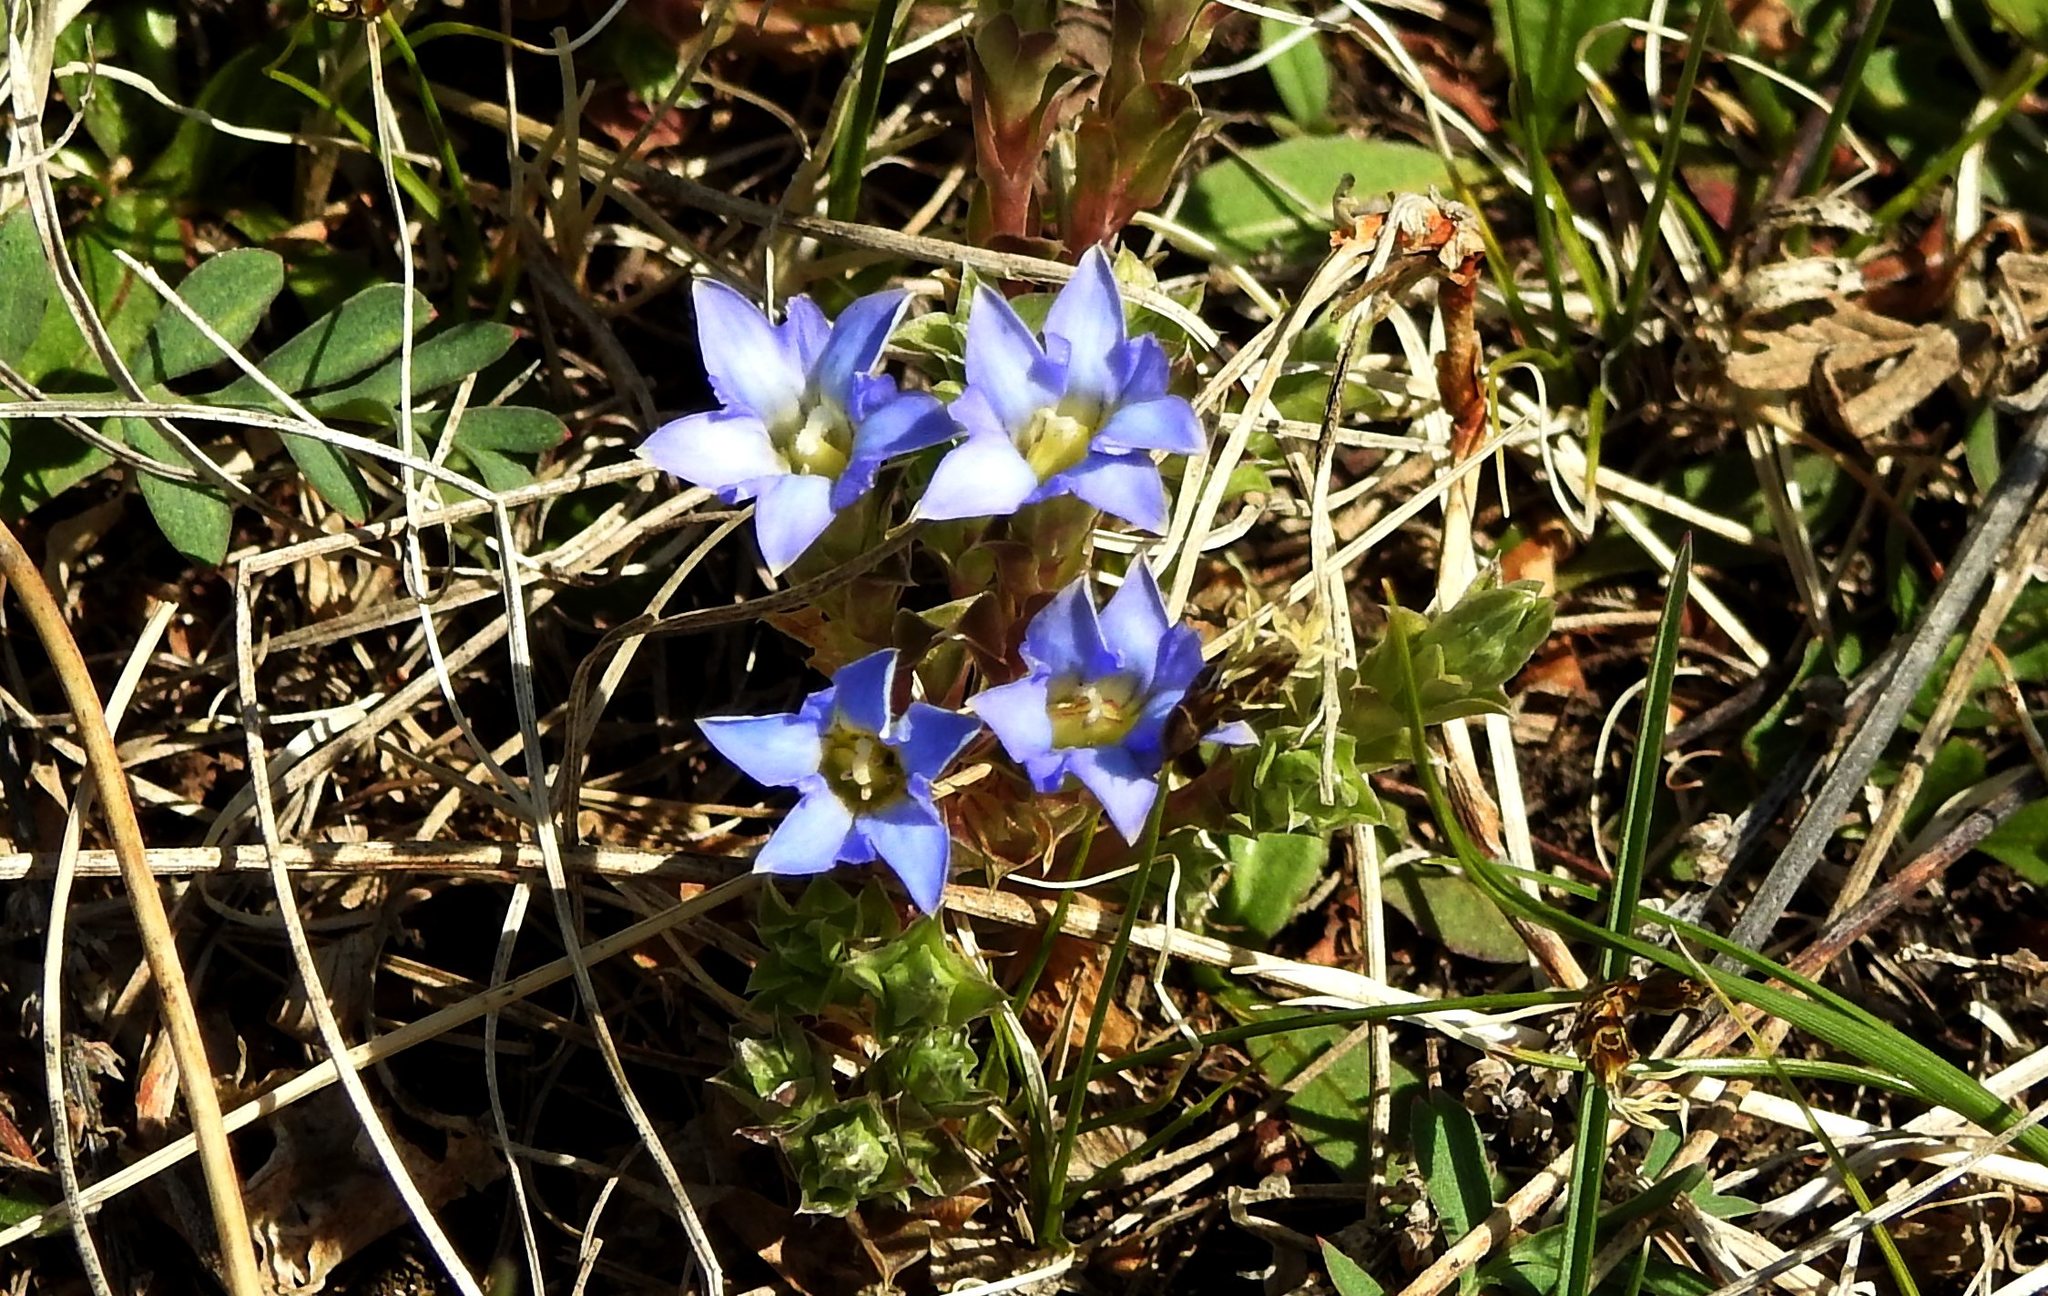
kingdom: Plantae
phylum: Tracheophyta
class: Magnoliopsida
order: Gentianales
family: Gentianaceae
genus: Gentiana
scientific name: Gentiana squarrosa
